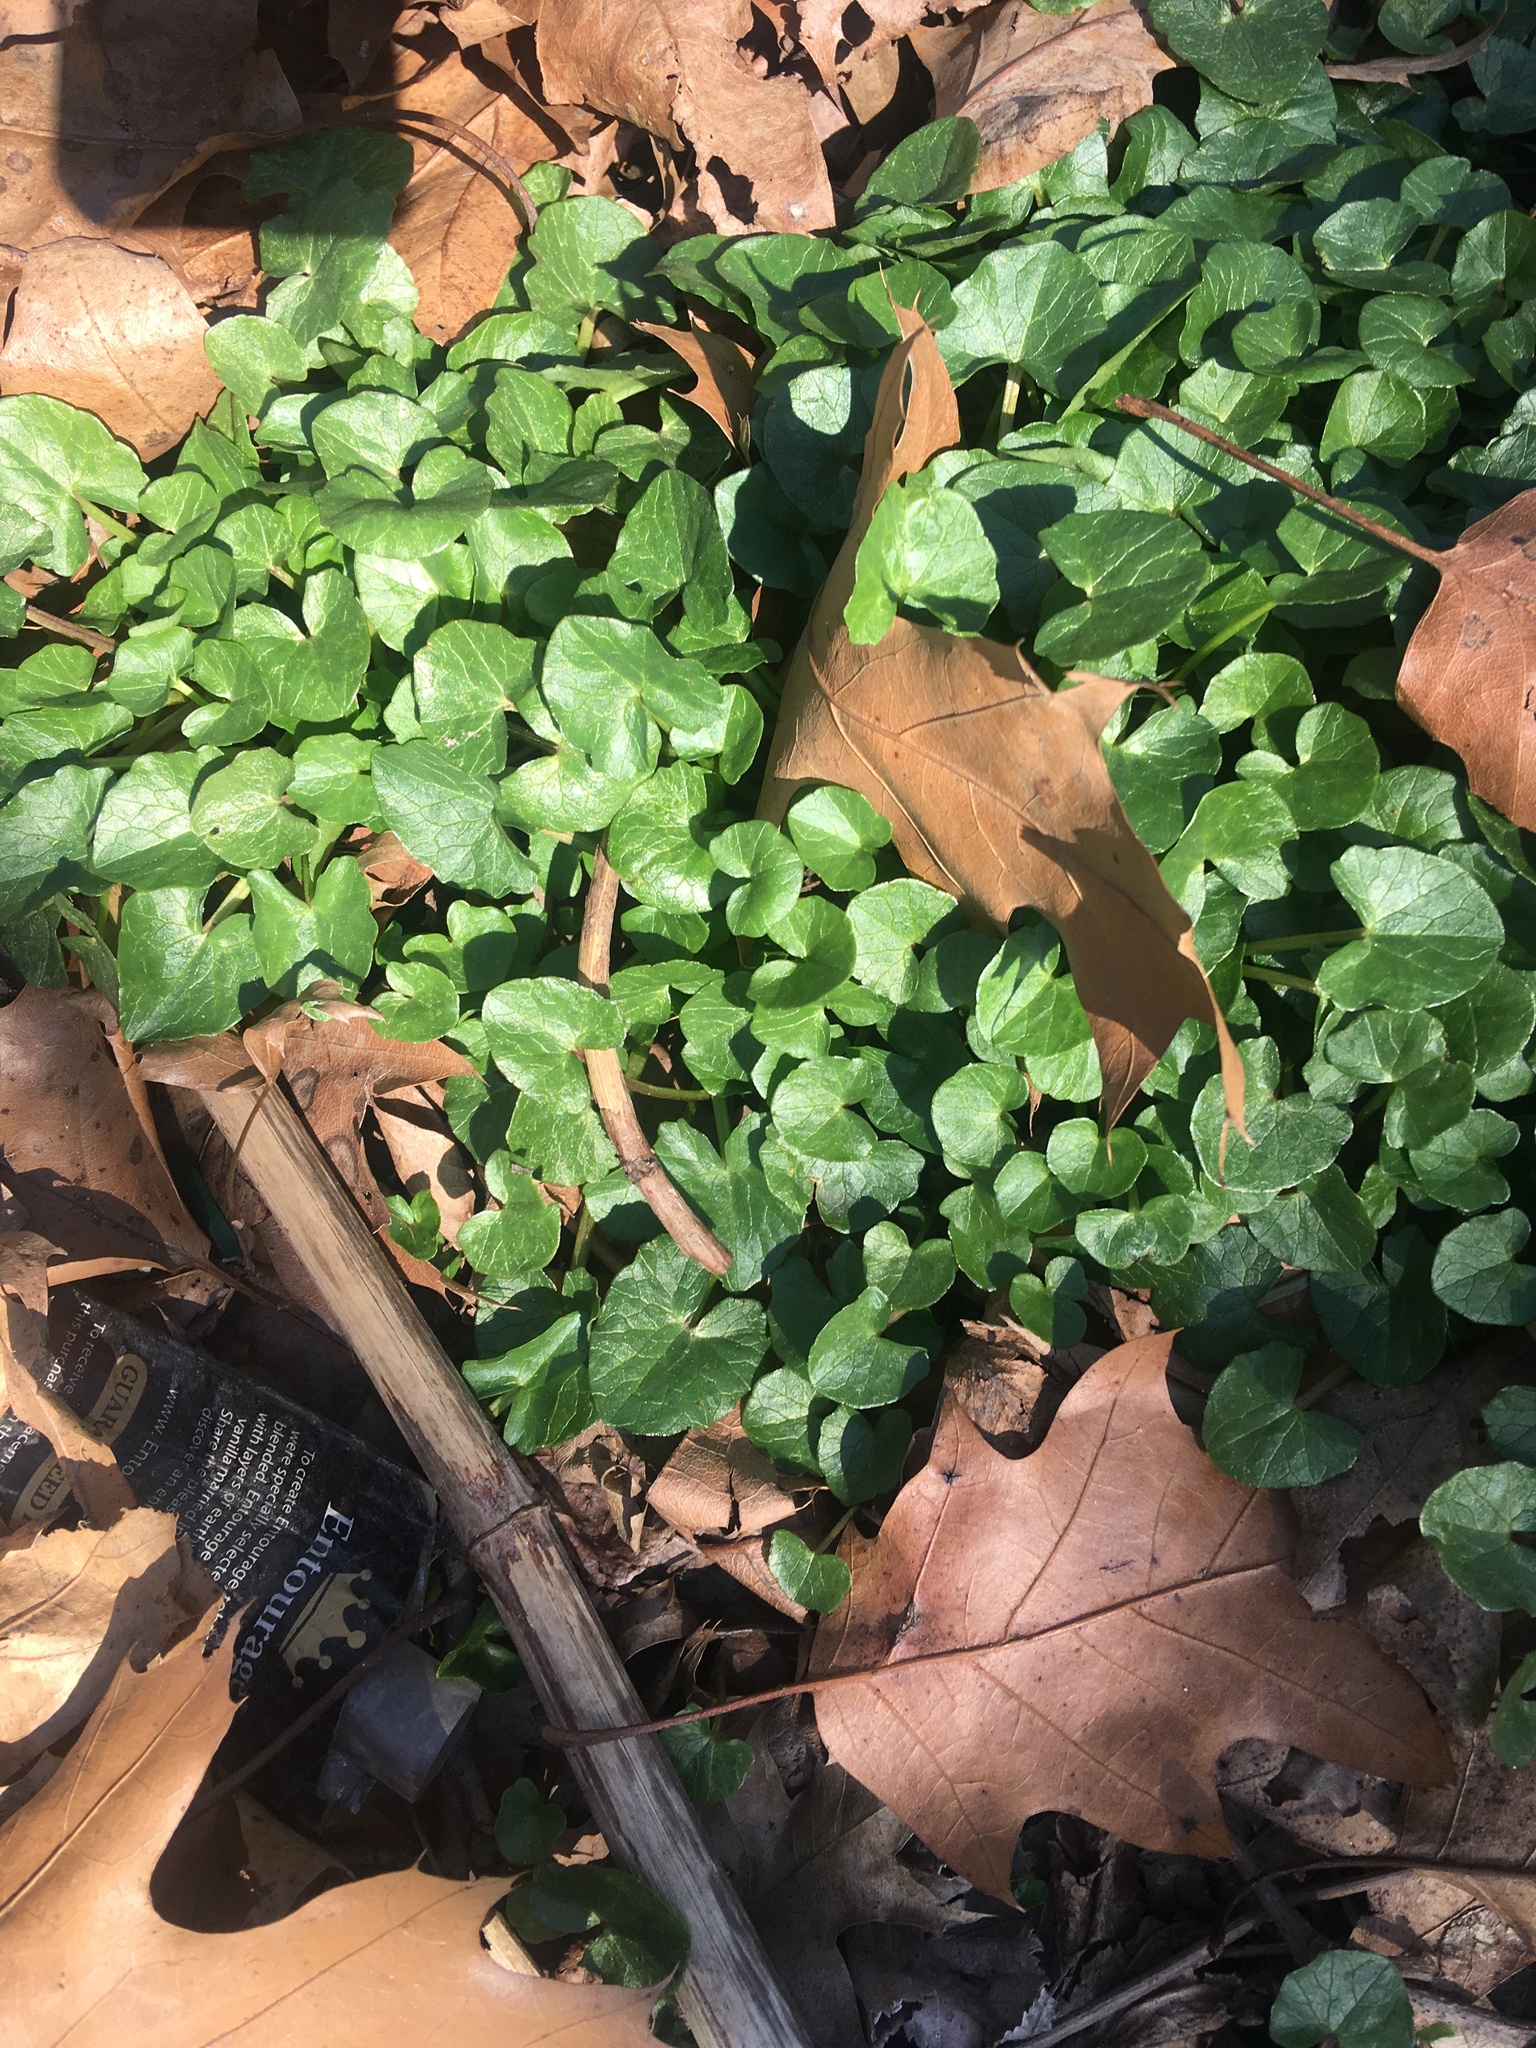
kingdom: Plantae
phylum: Tracheophyta
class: Magnoliopsida
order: Ranunculales
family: Ranunculaceae
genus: Ficaria
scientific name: Ficaria verna
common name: Lesser celandine
